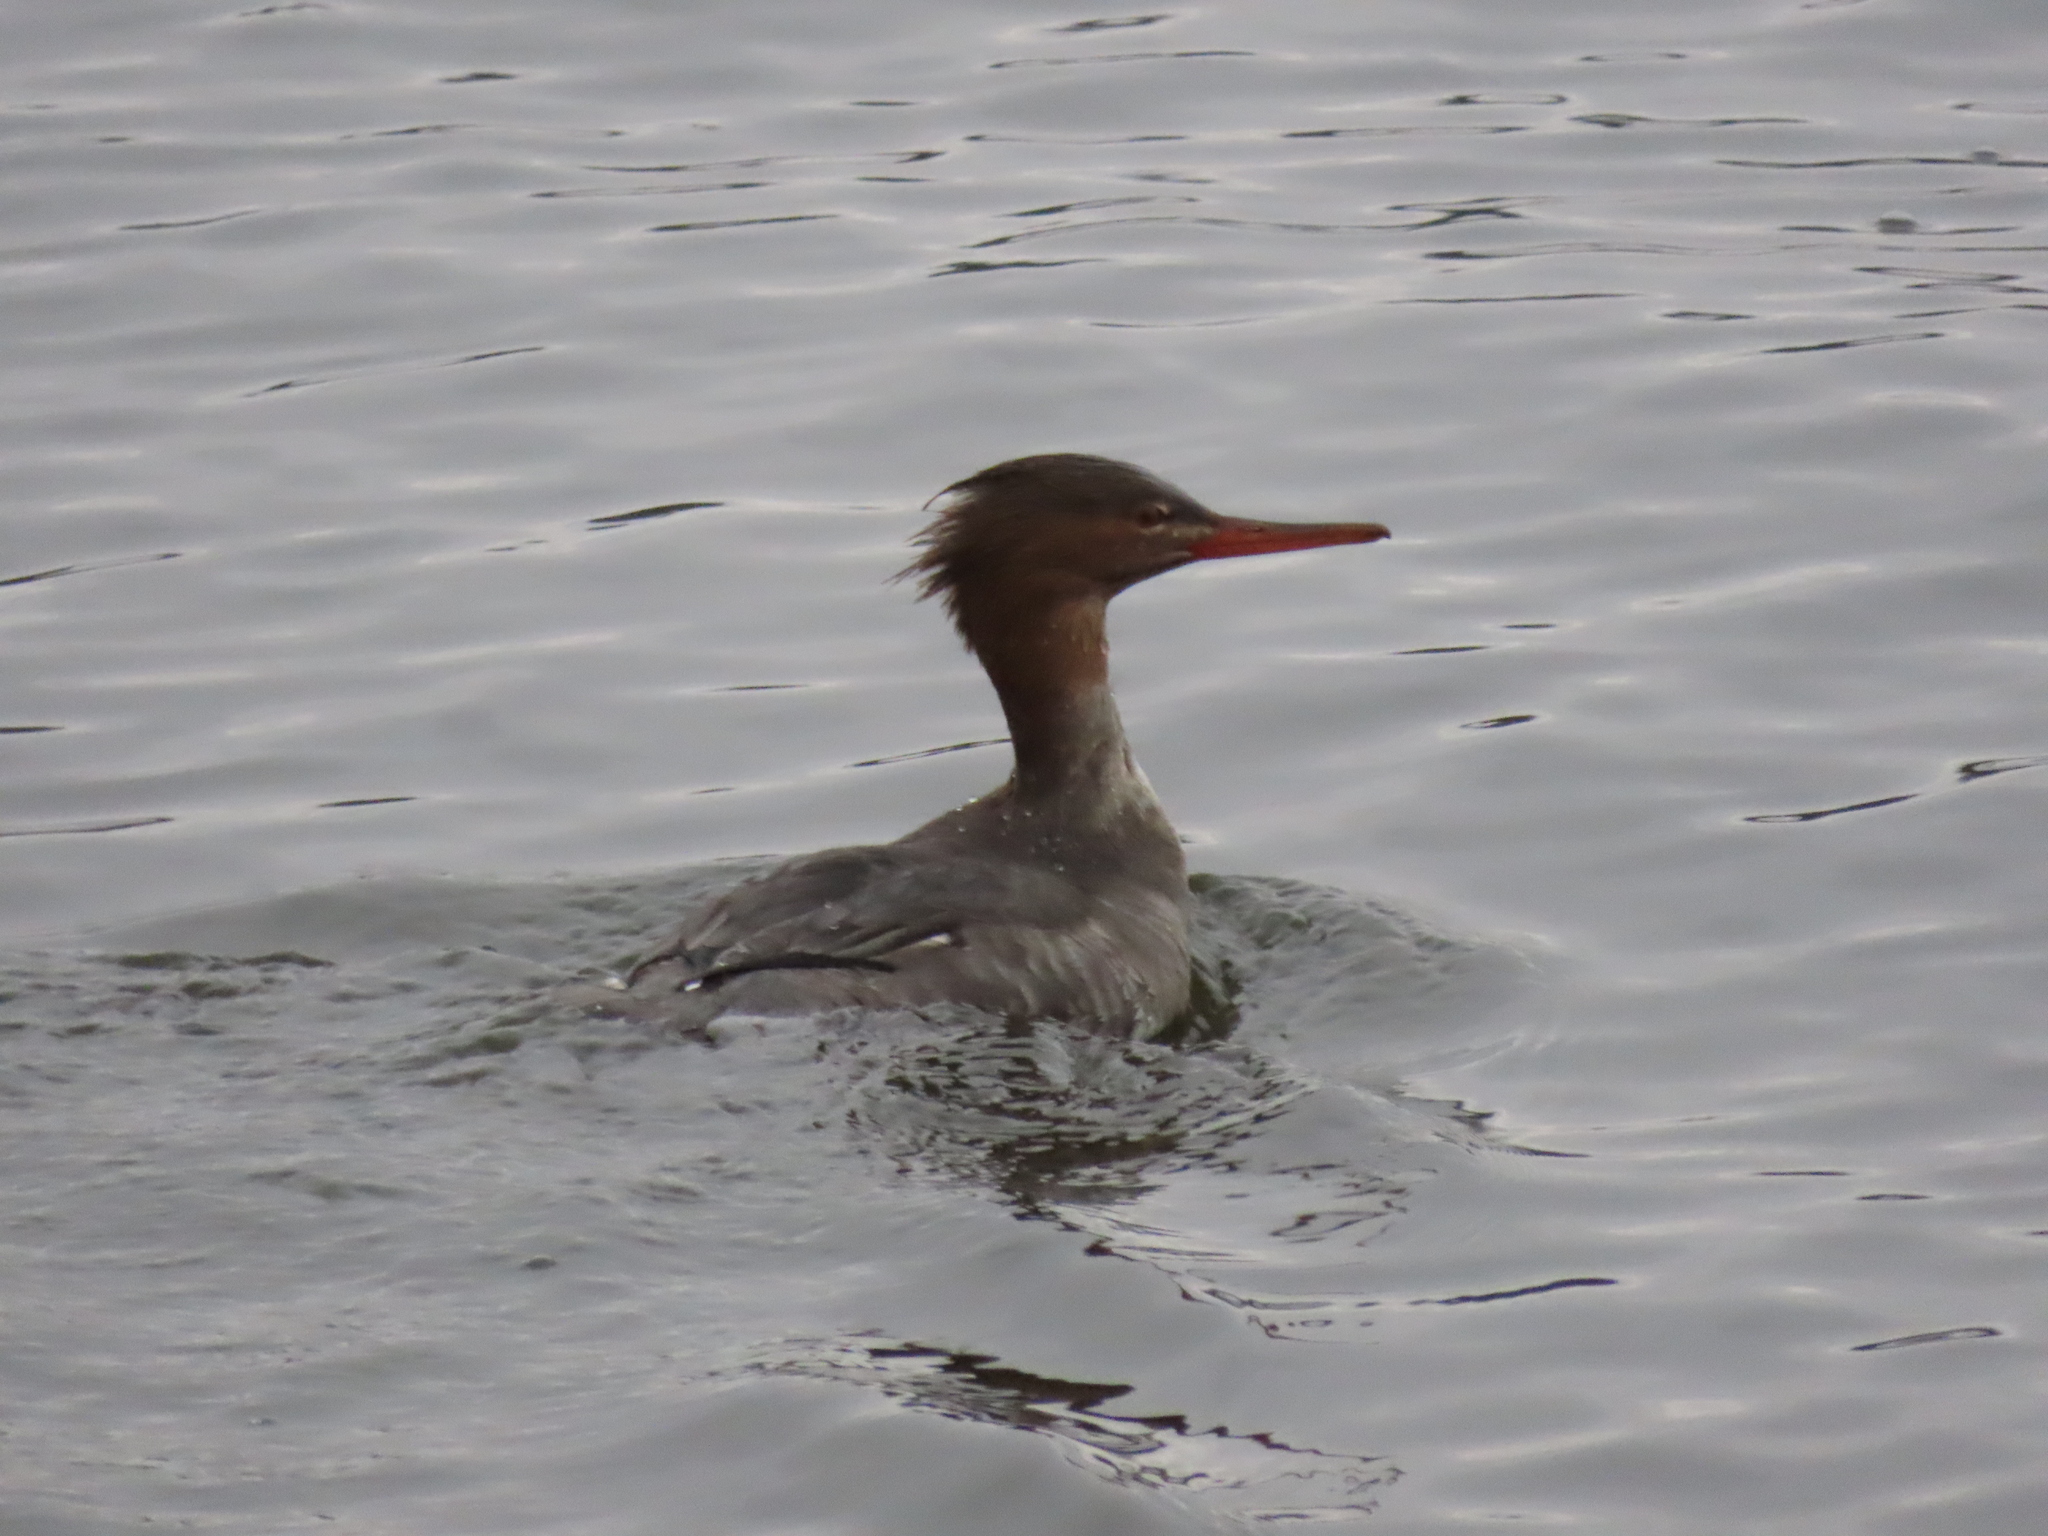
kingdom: Animalia
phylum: Chordata
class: Aves
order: Anseriformes
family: Anatidae
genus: Mergus
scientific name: Mergus serrator
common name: Red-breasted merganser
